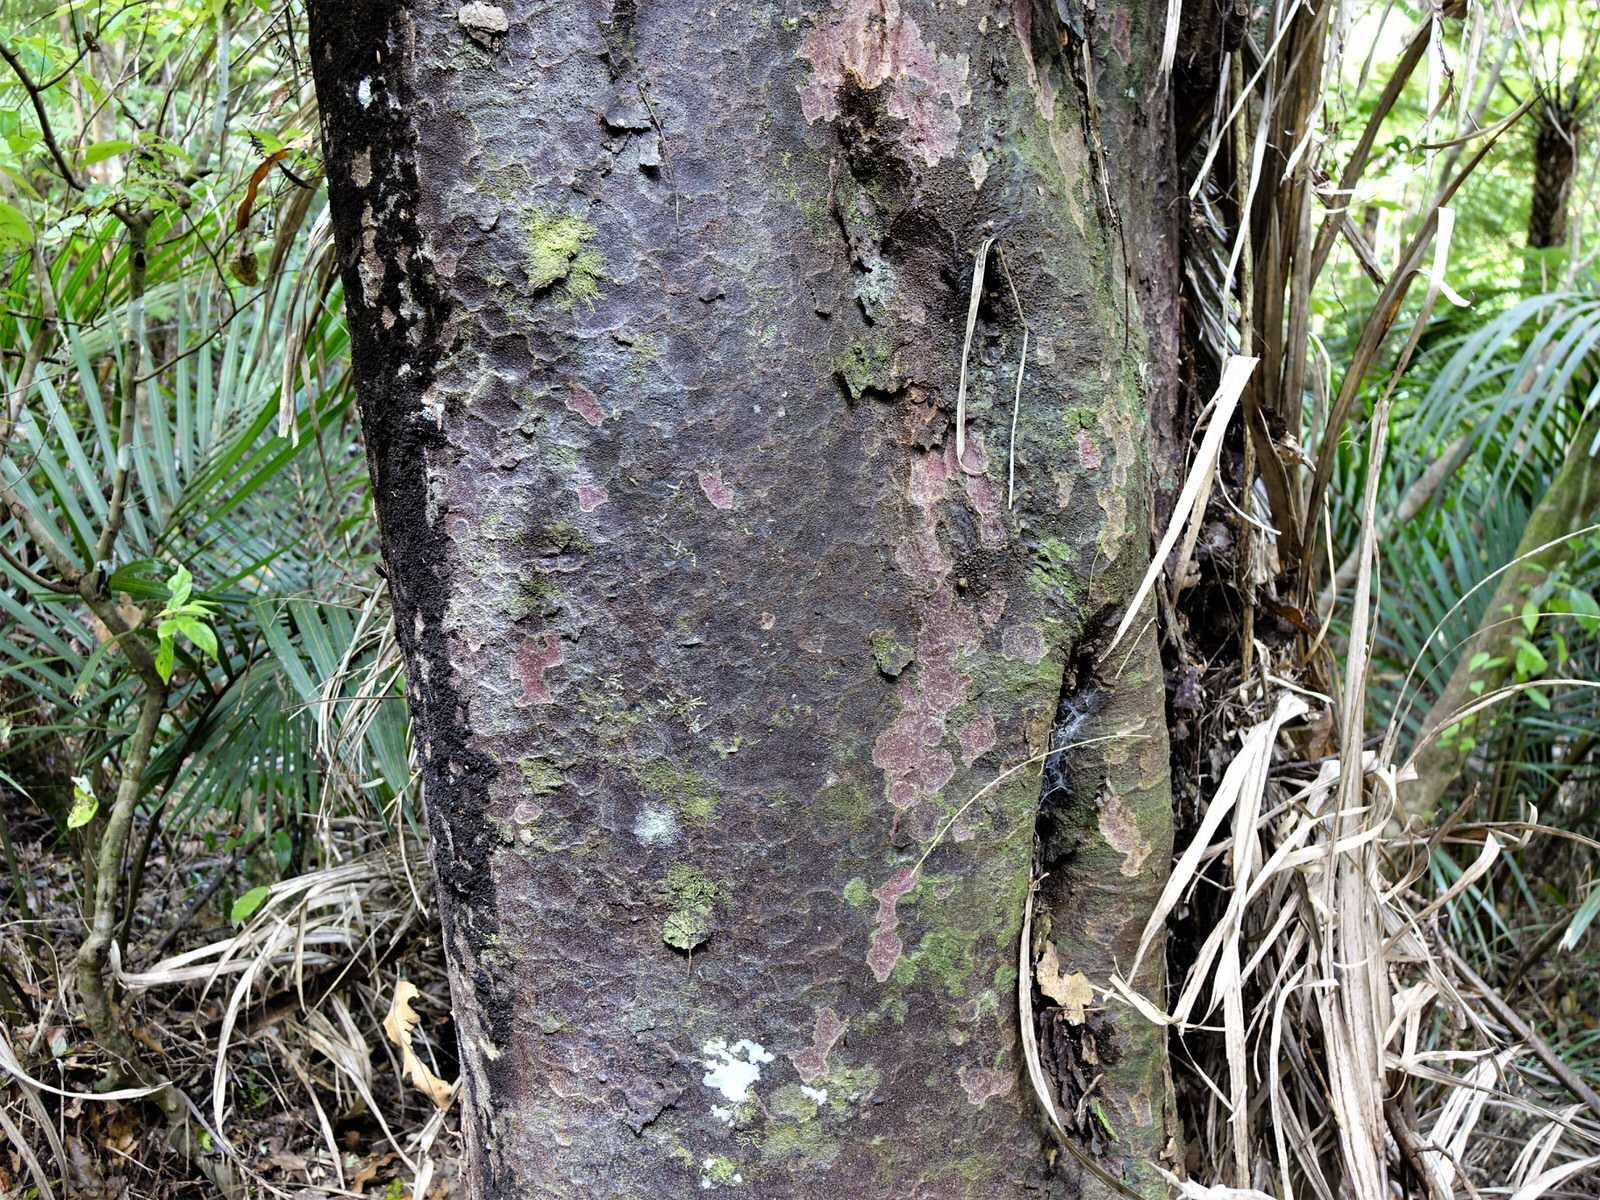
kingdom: Plantae
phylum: Tracheophyta
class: Pinopsida
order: Pinales
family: Podocarpaceae
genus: Prumnopitys
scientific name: Prumnopitys taxifolia
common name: Matai
